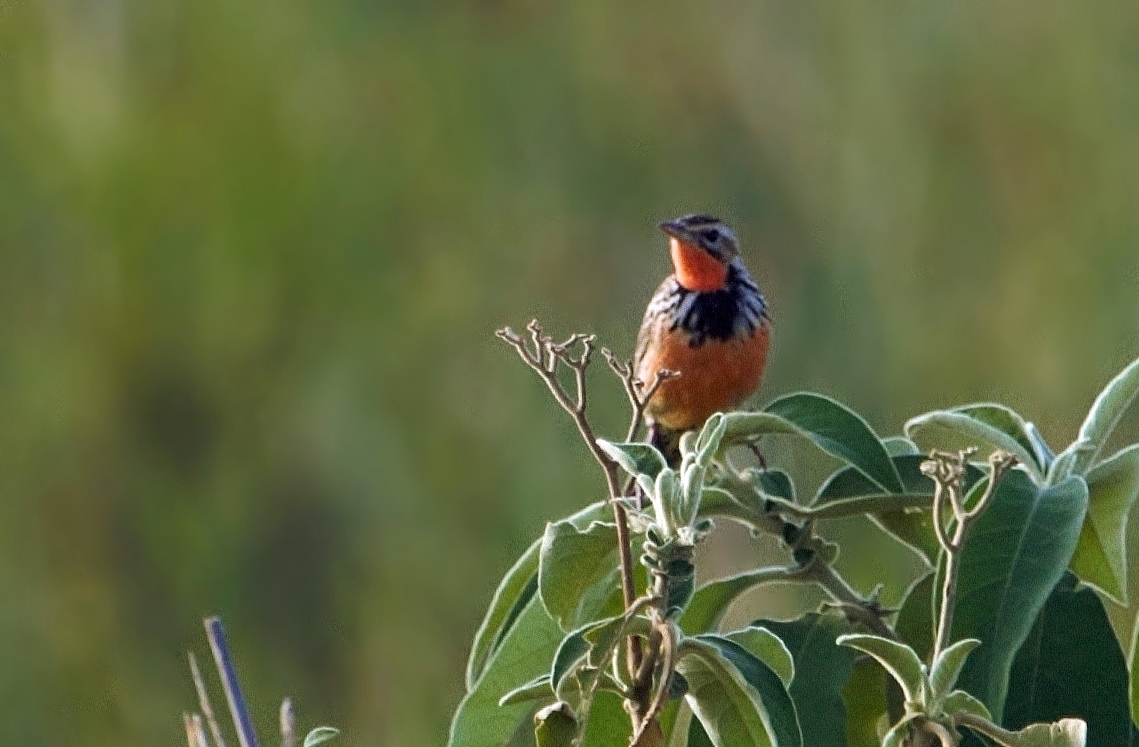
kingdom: Animalia
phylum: Chordata
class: Aves
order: Passeriformes
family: Motacillidae
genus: Macronyx
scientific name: Macronyx ameliae
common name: Rosy-throated longclaw
